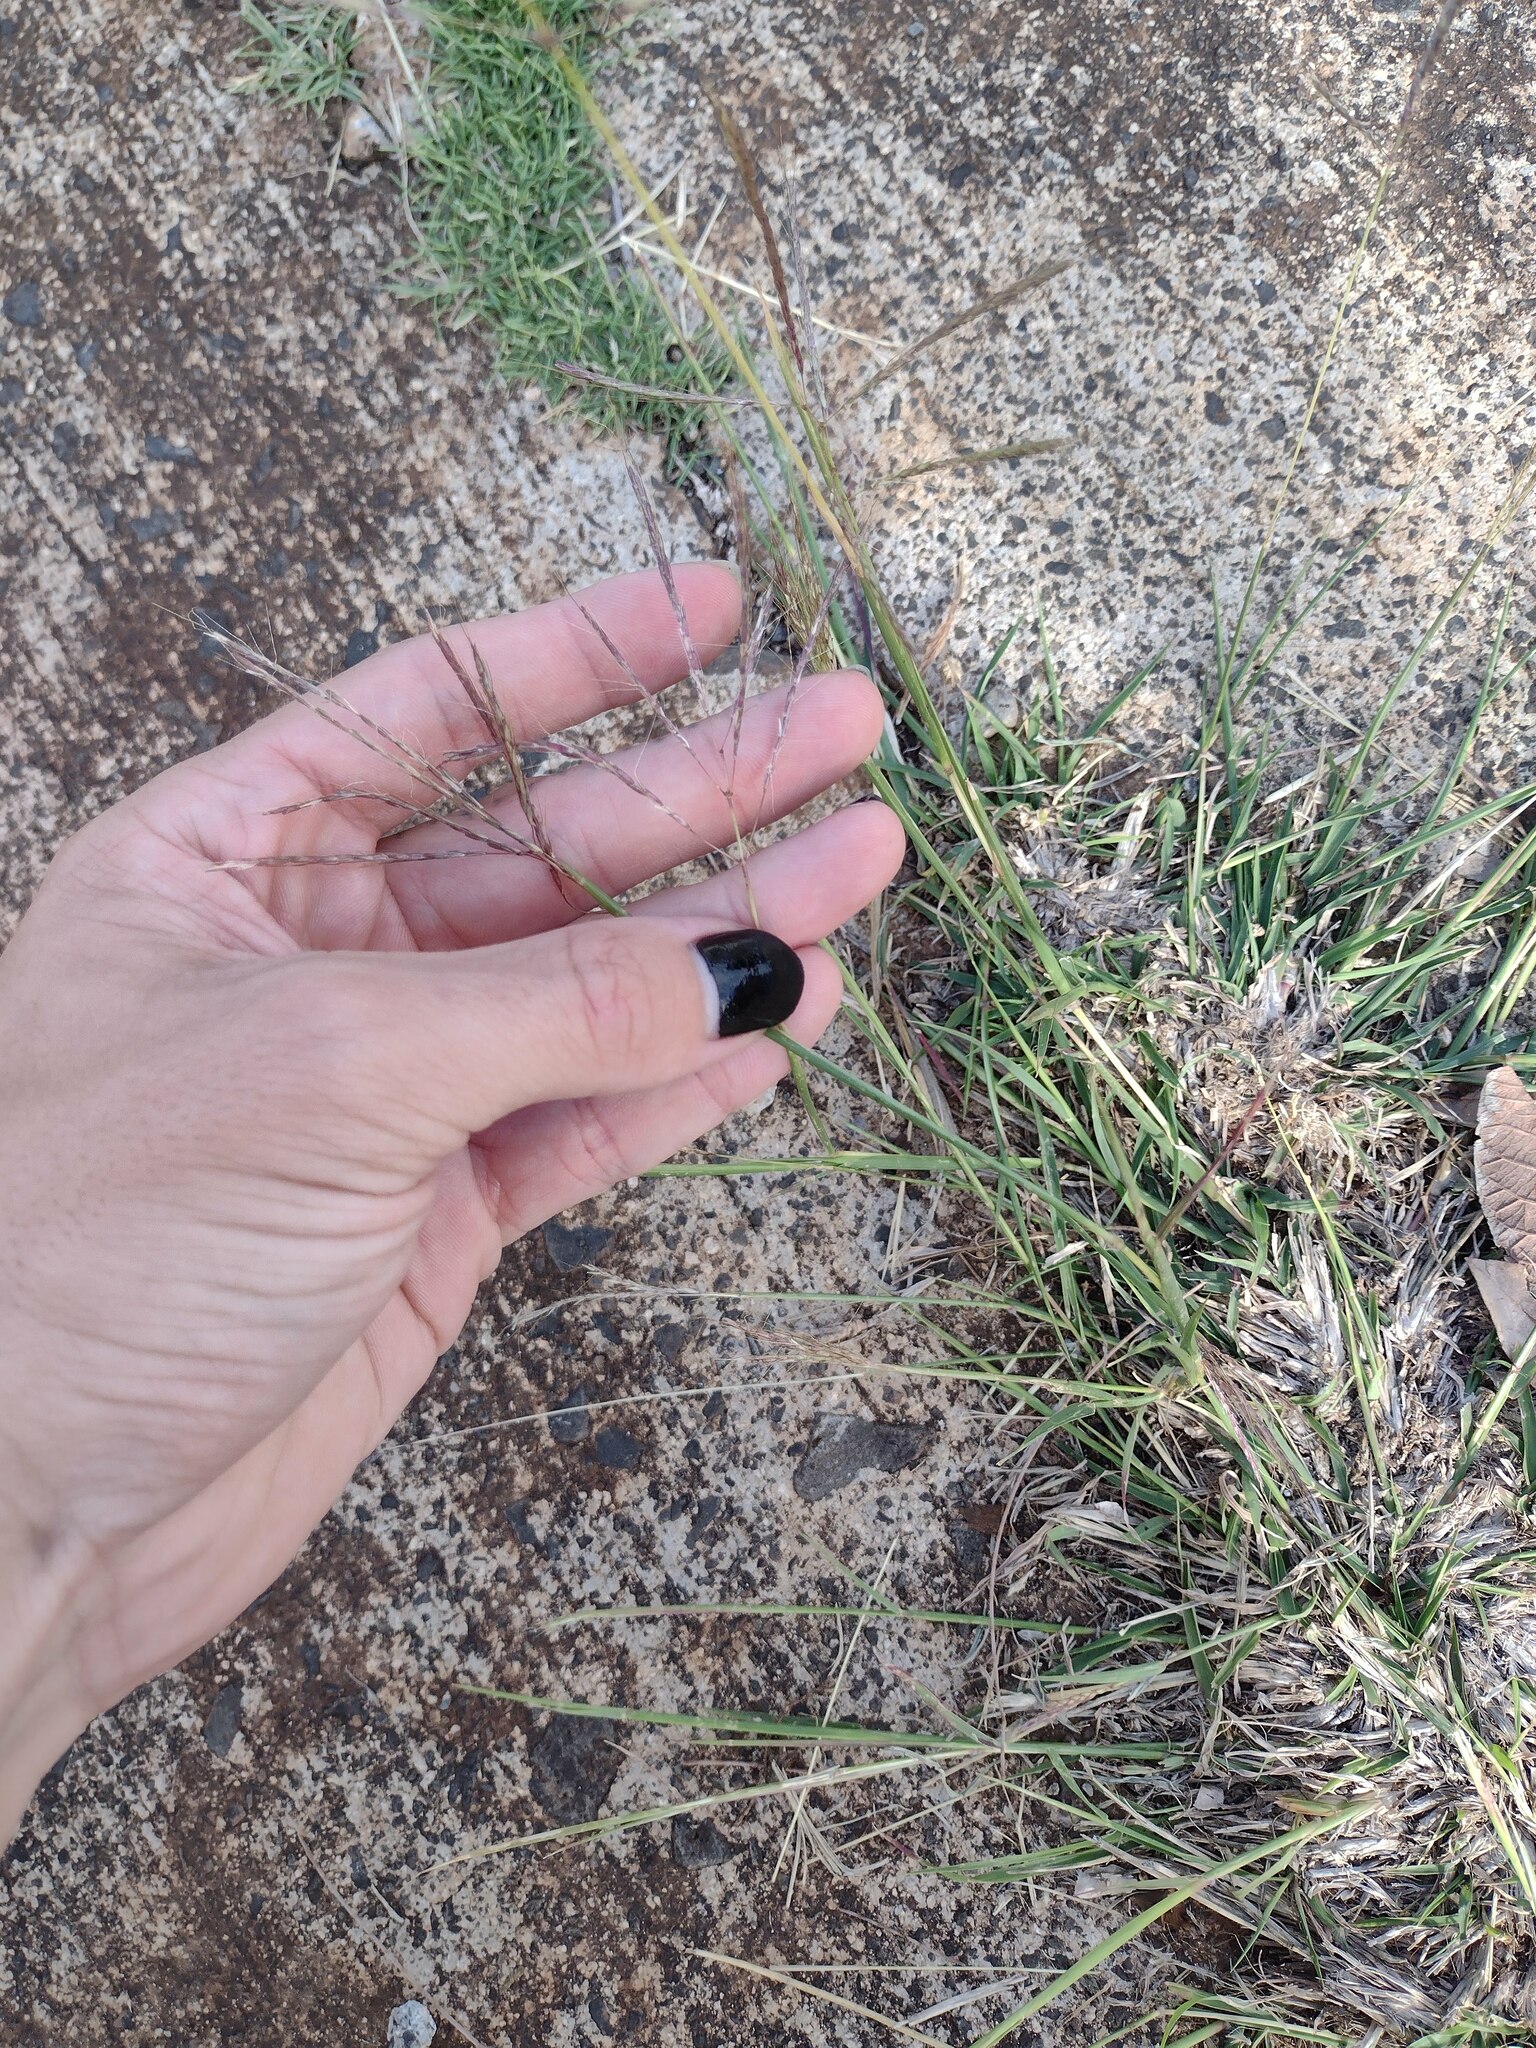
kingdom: Plantae
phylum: Tracheophyta
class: Liliopsida
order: Poales
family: Poaceae
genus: Dichanthium
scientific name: Dichanthium annulatum
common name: Kleberg's bluestem
